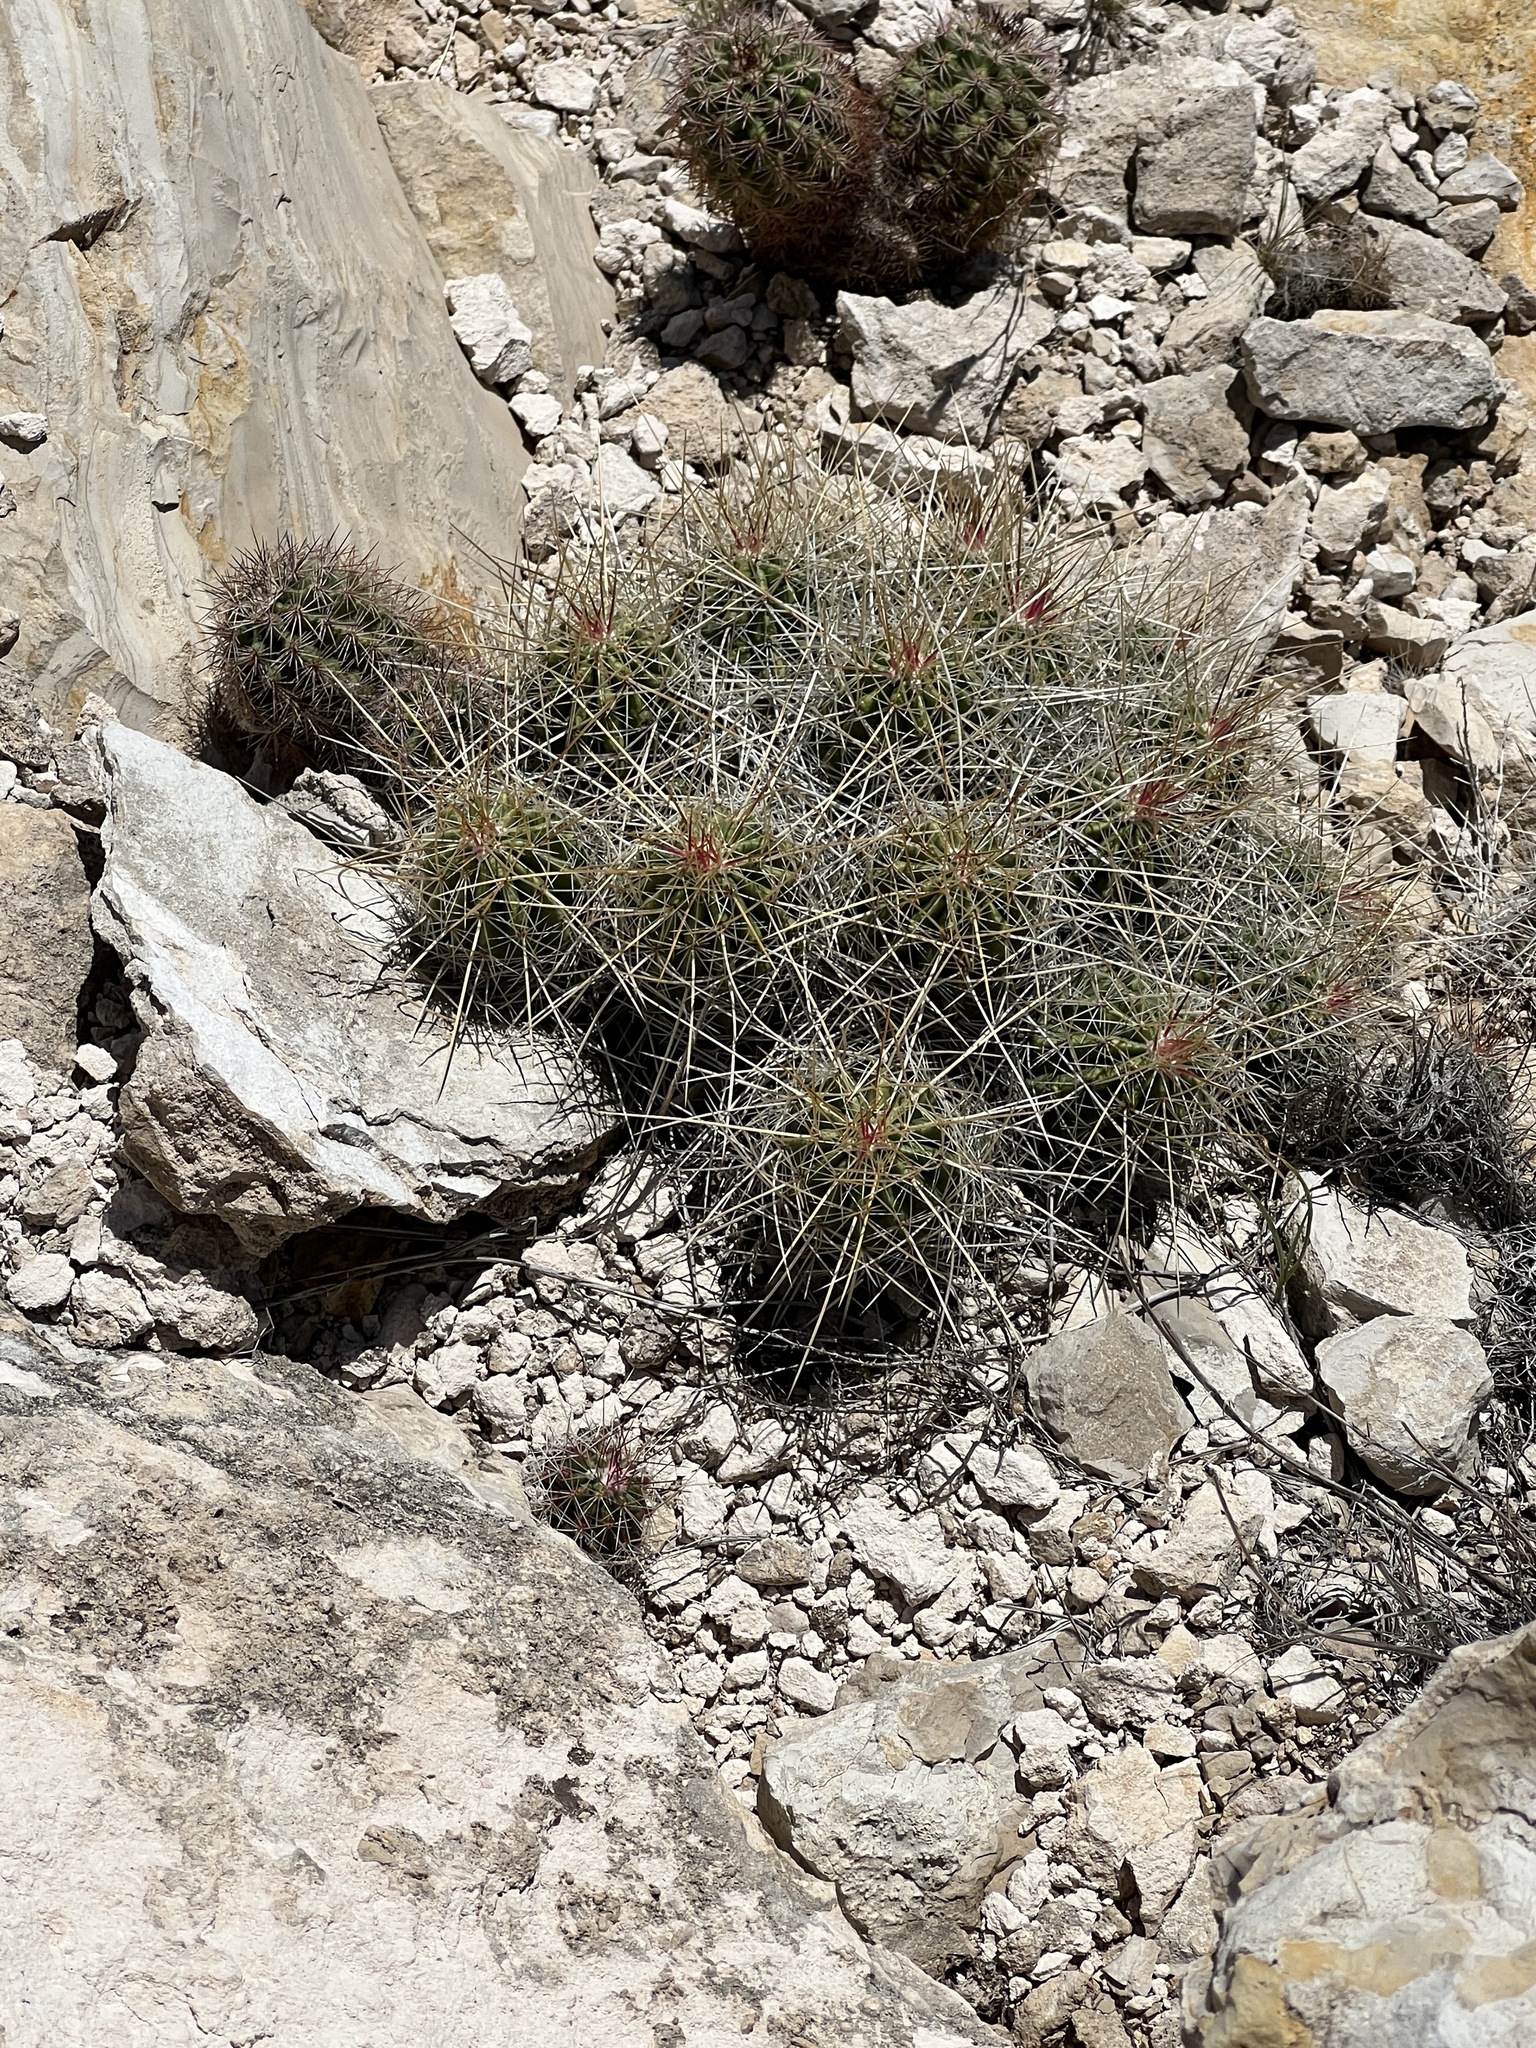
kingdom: Plantae
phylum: Tracheophyta
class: Magnoliopsida
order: Caryophyllales
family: Cactaceae
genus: Echinocereus
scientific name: Echinocereus stramineus
